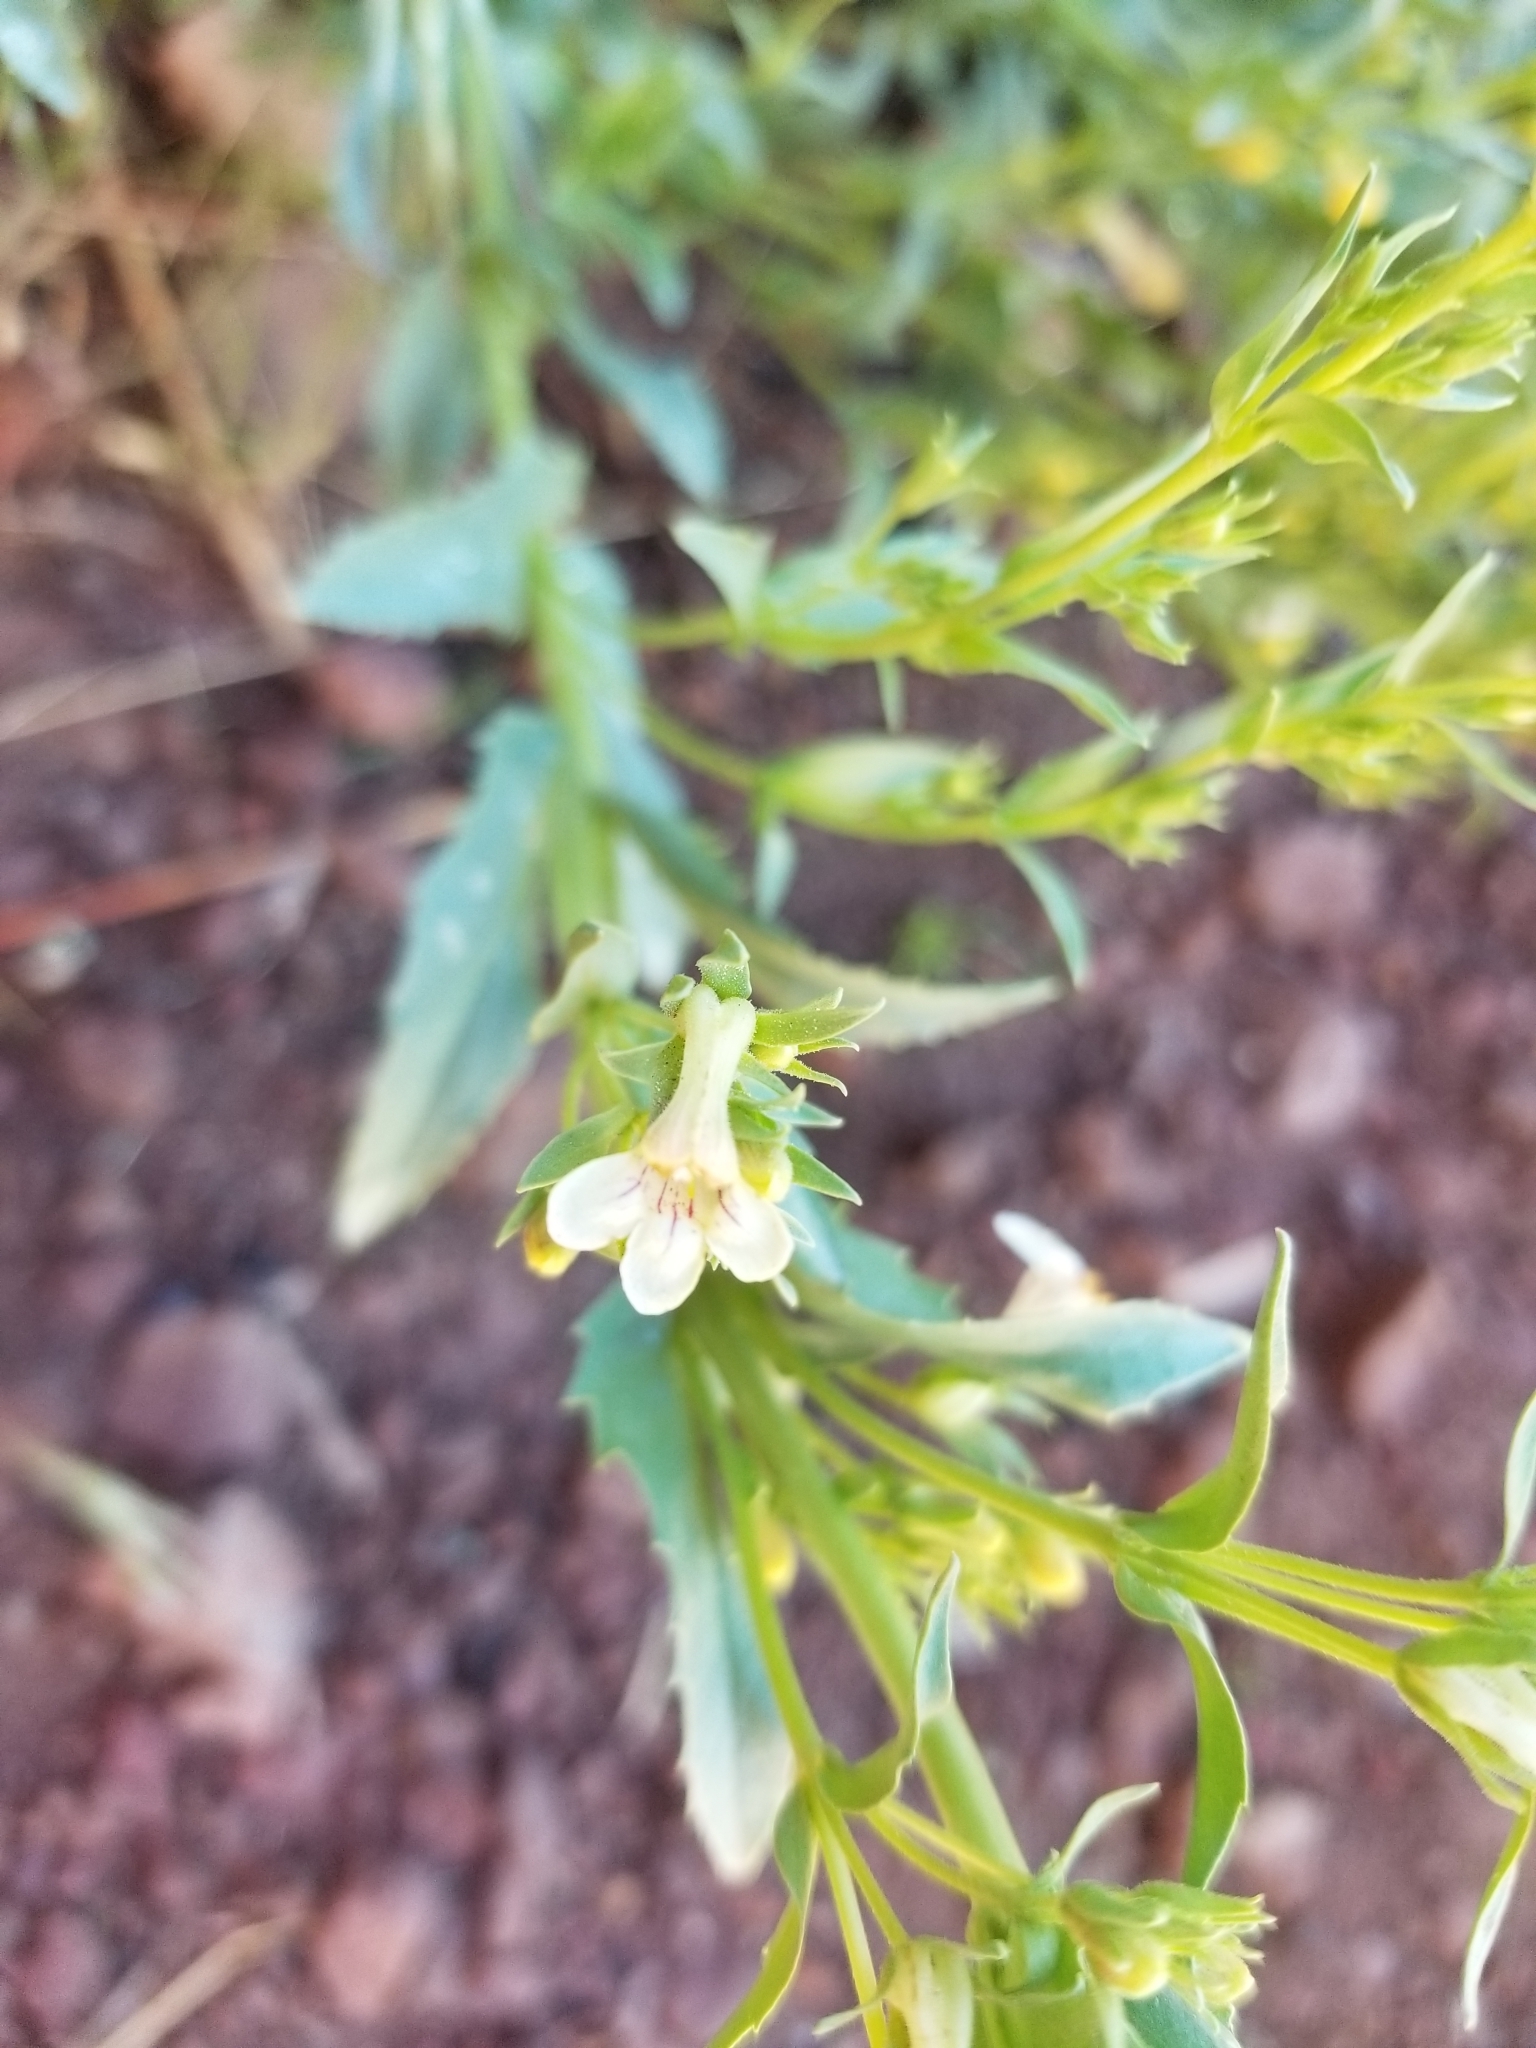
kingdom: Plantae
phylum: Tracheophyta
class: Magnoliopsida
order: Lamiales
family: Plantaginaceae
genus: Penstemon
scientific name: Penstemon deustus
